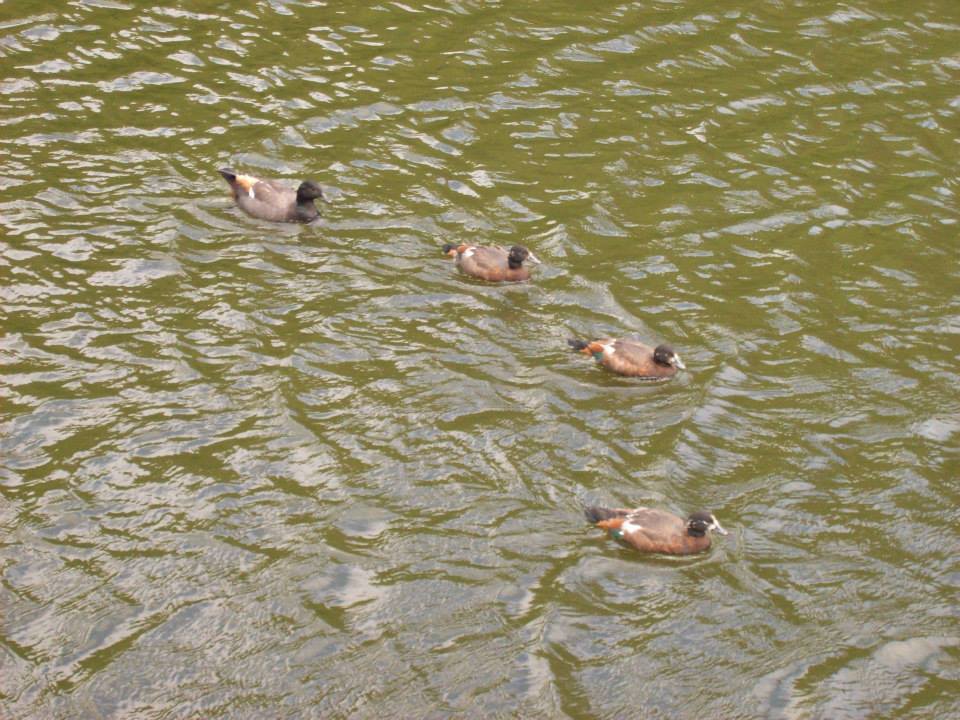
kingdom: Animalia
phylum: Chordata
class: Aves
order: Anseriformes
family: Anatidae
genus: Tadorna
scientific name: Tadorna variegata
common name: Paradise shelduck
